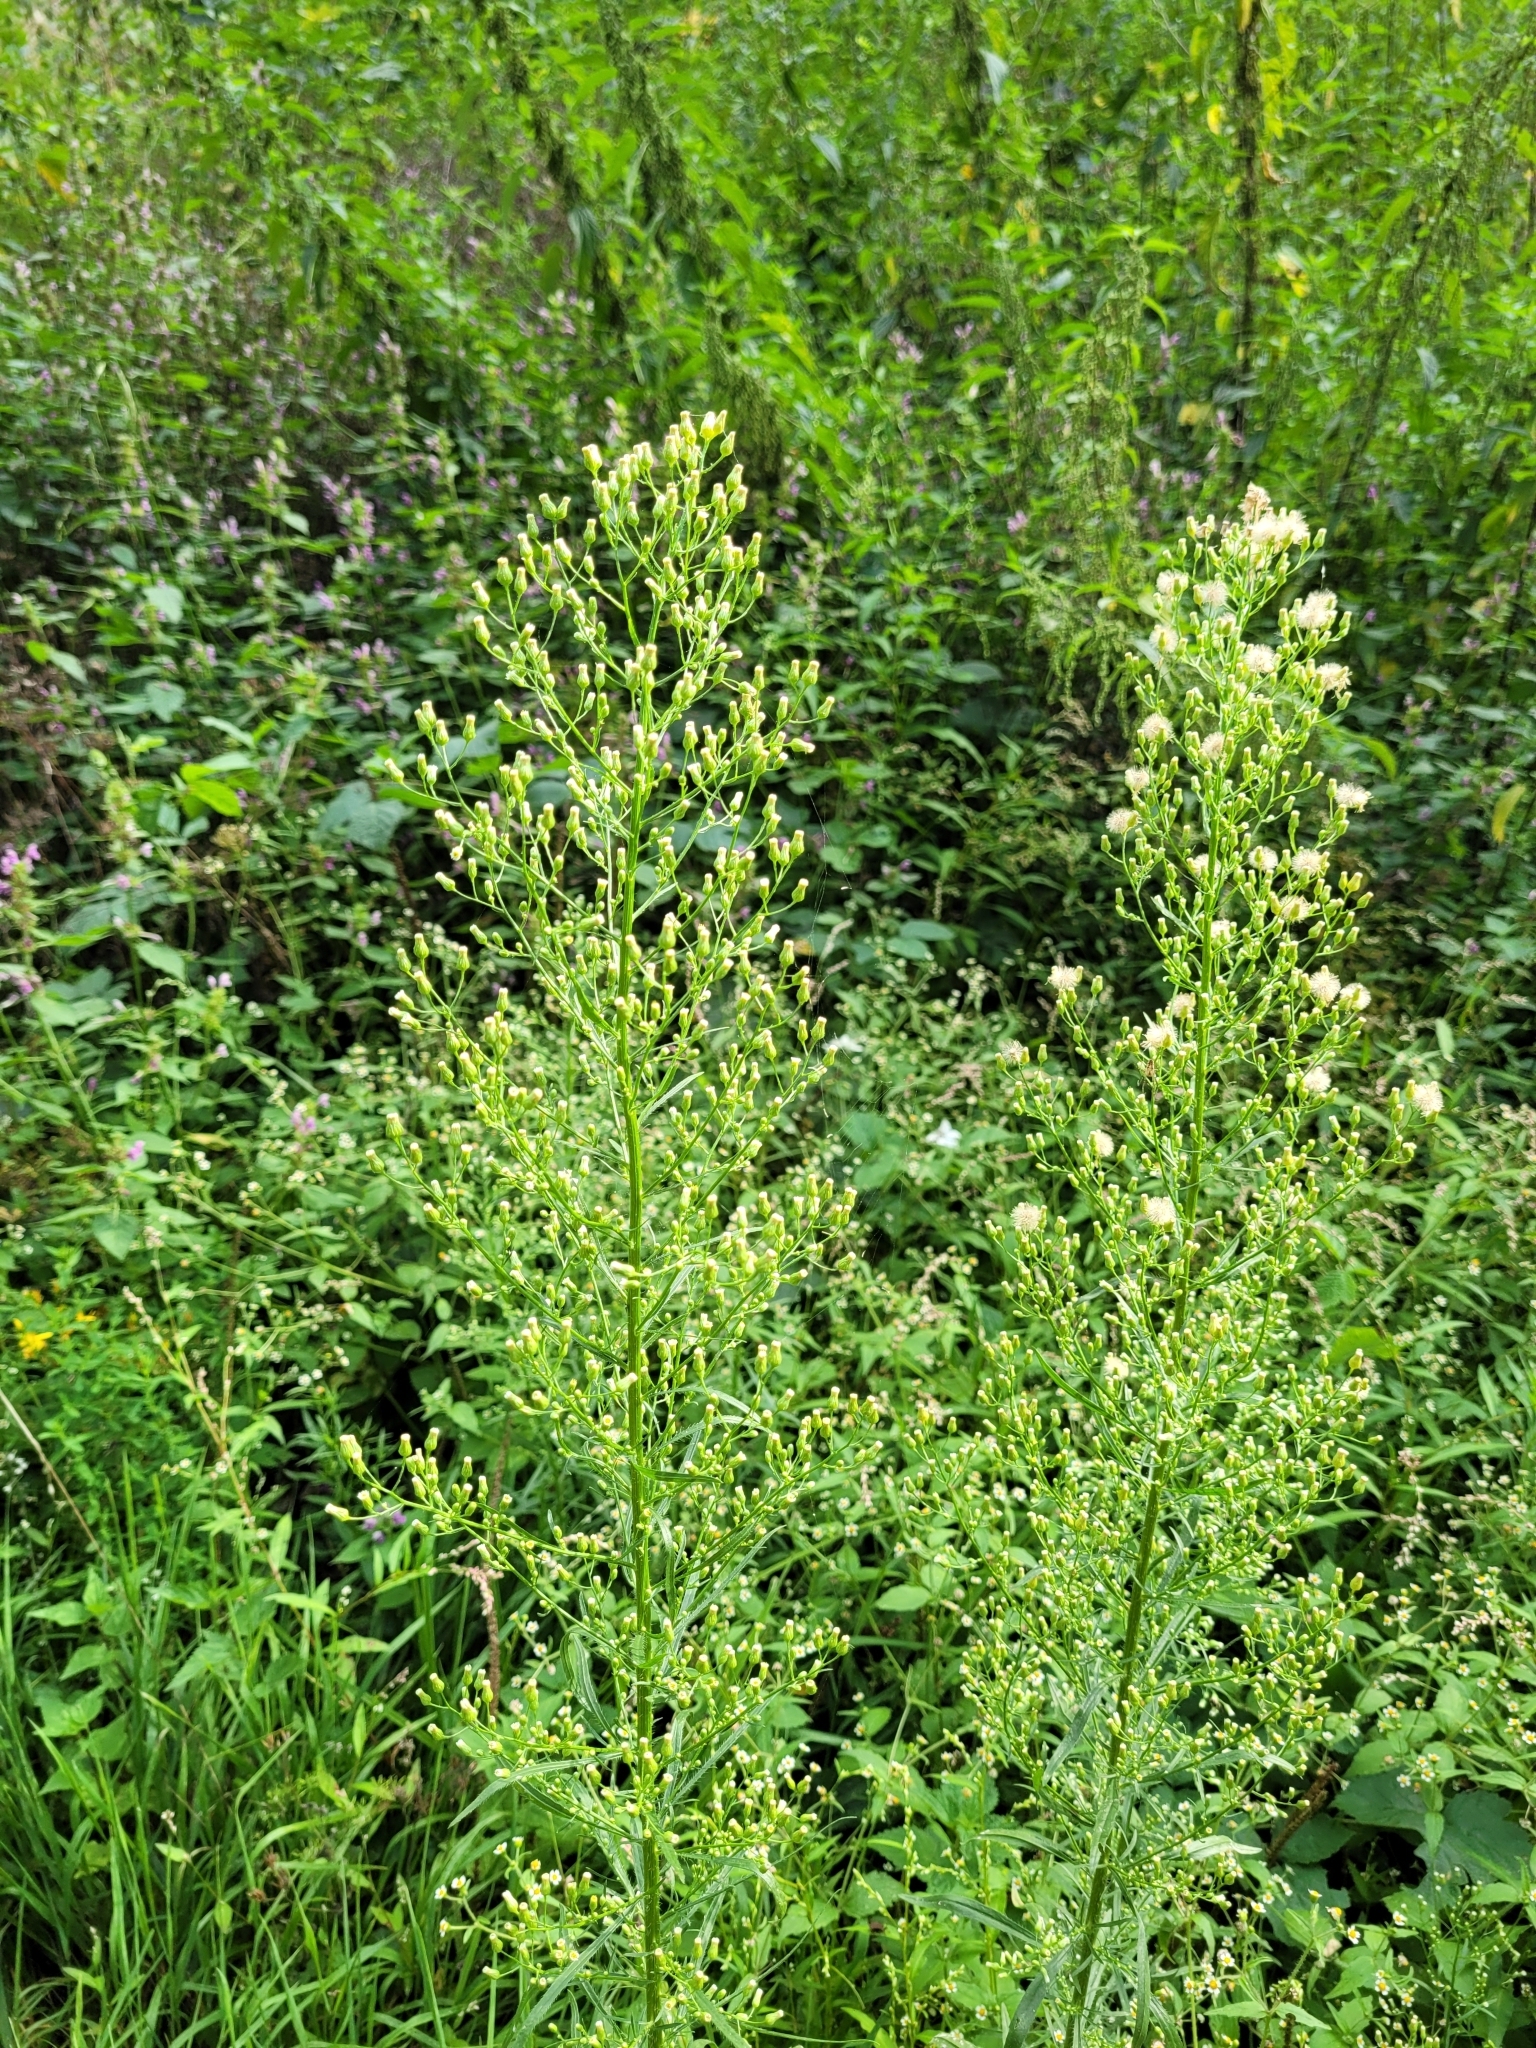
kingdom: Plantae
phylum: Tracheophyta
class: Magnoliopsida
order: Asterales
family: Asteraceae
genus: Erigeron
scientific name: Erigeron canadensis
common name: Canadian fleabane
